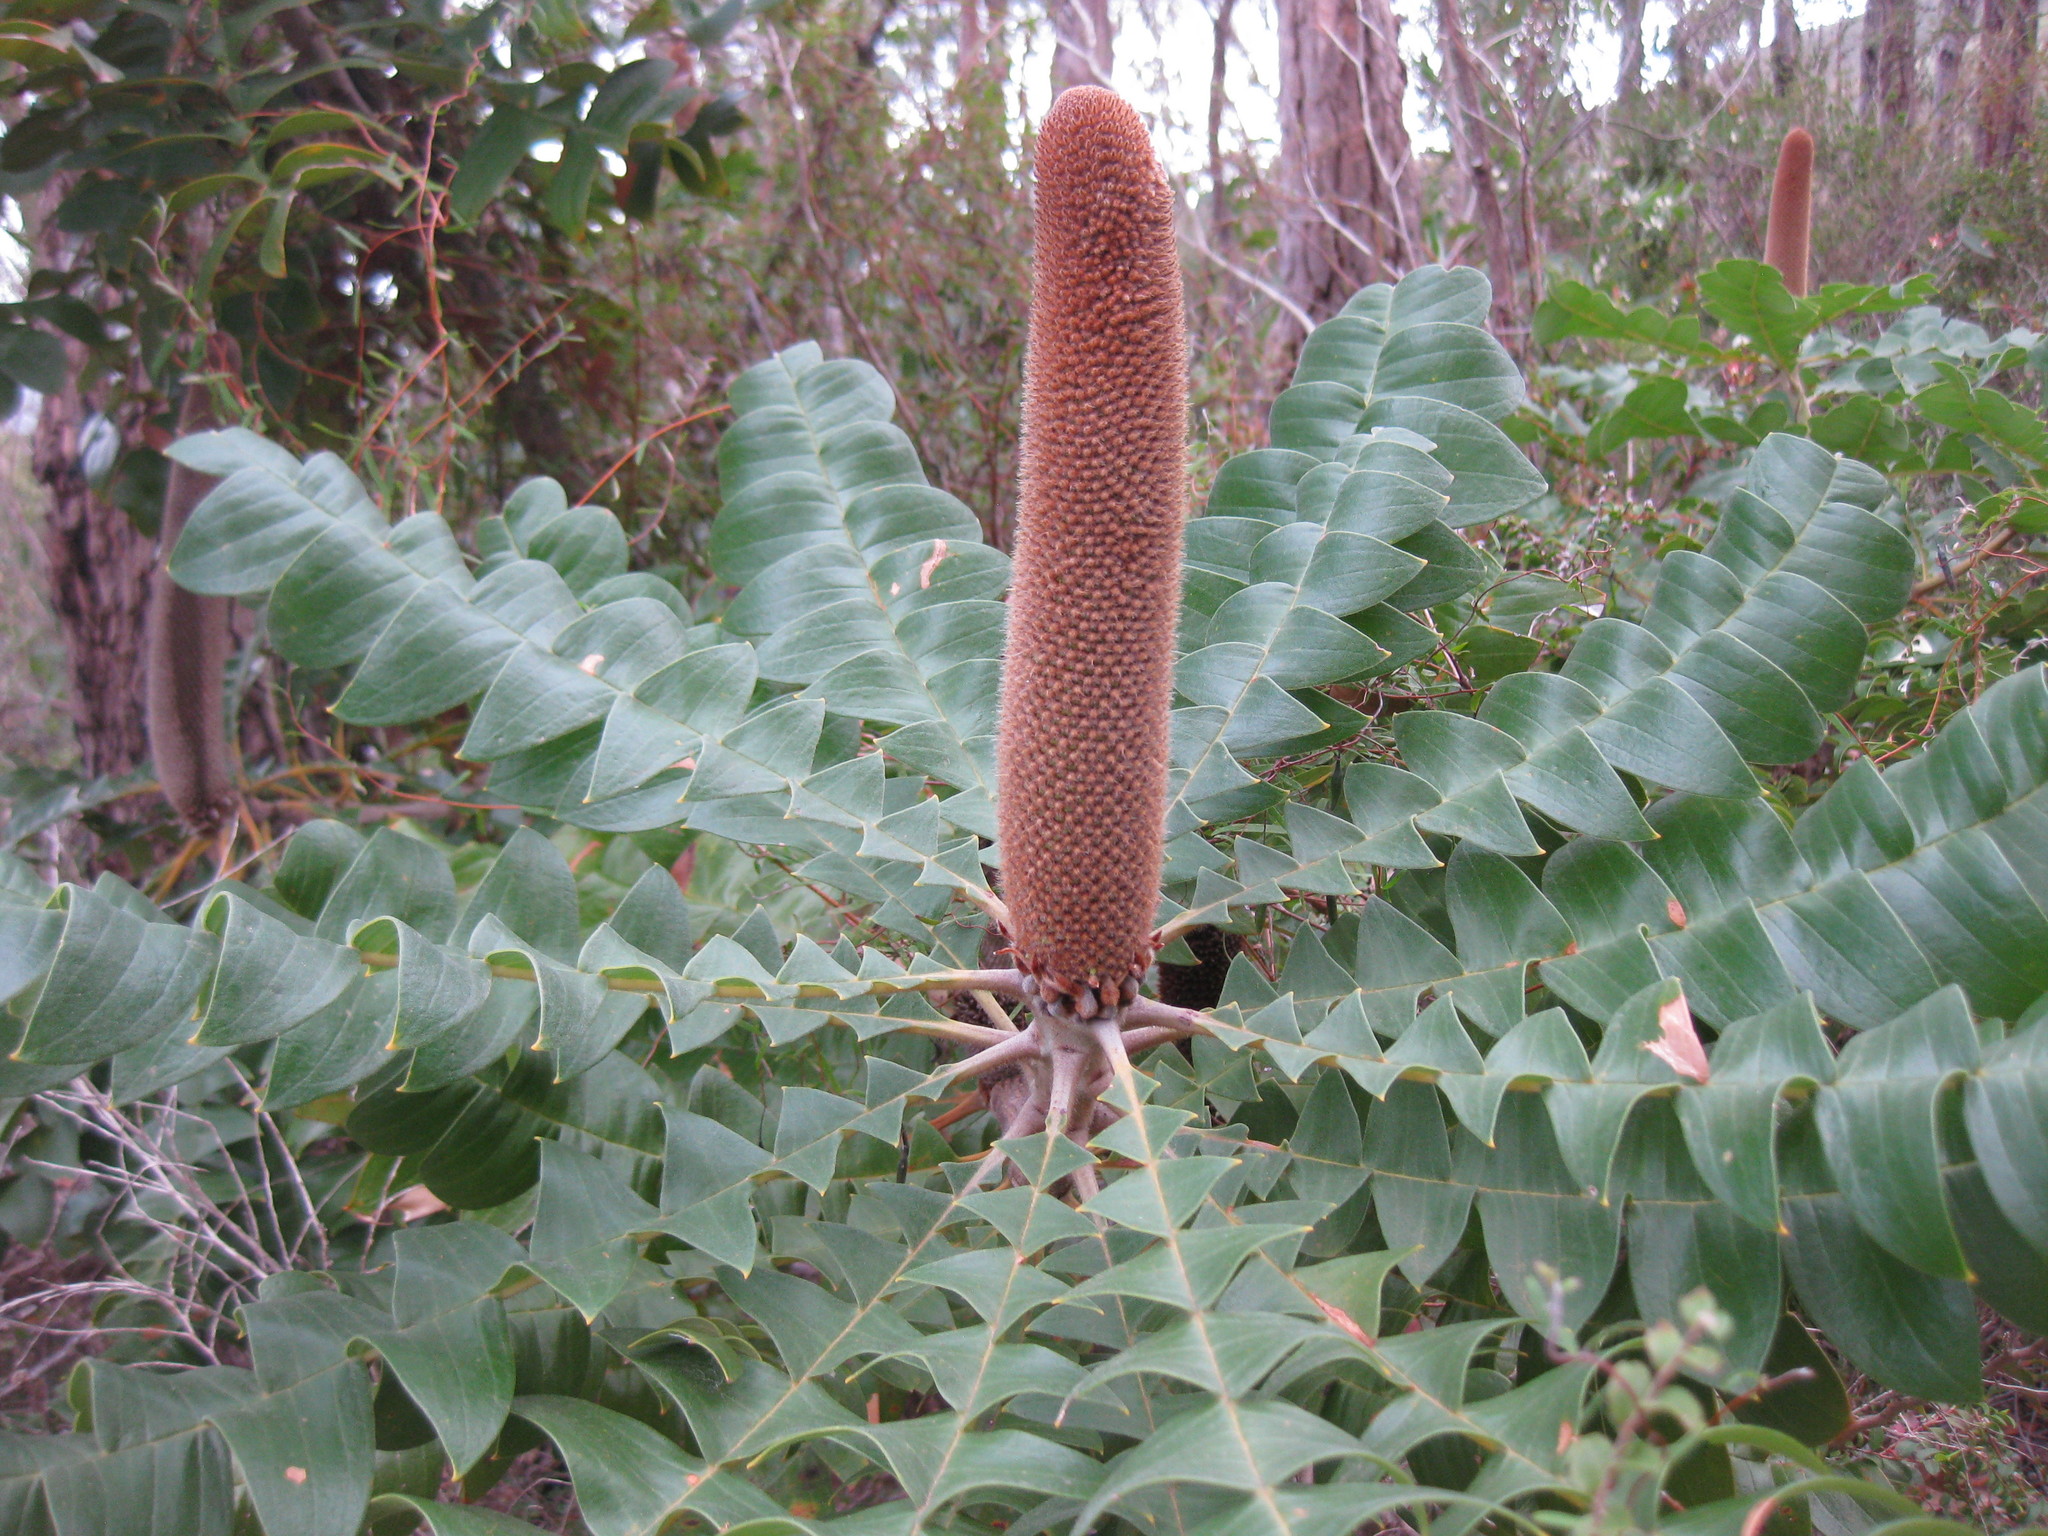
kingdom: Plantae
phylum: Tracheophyta
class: Magnoliopsida
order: Proteales
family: Proteaceae
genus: Banksia
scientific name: Banksia grandis
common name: Giant banksia
